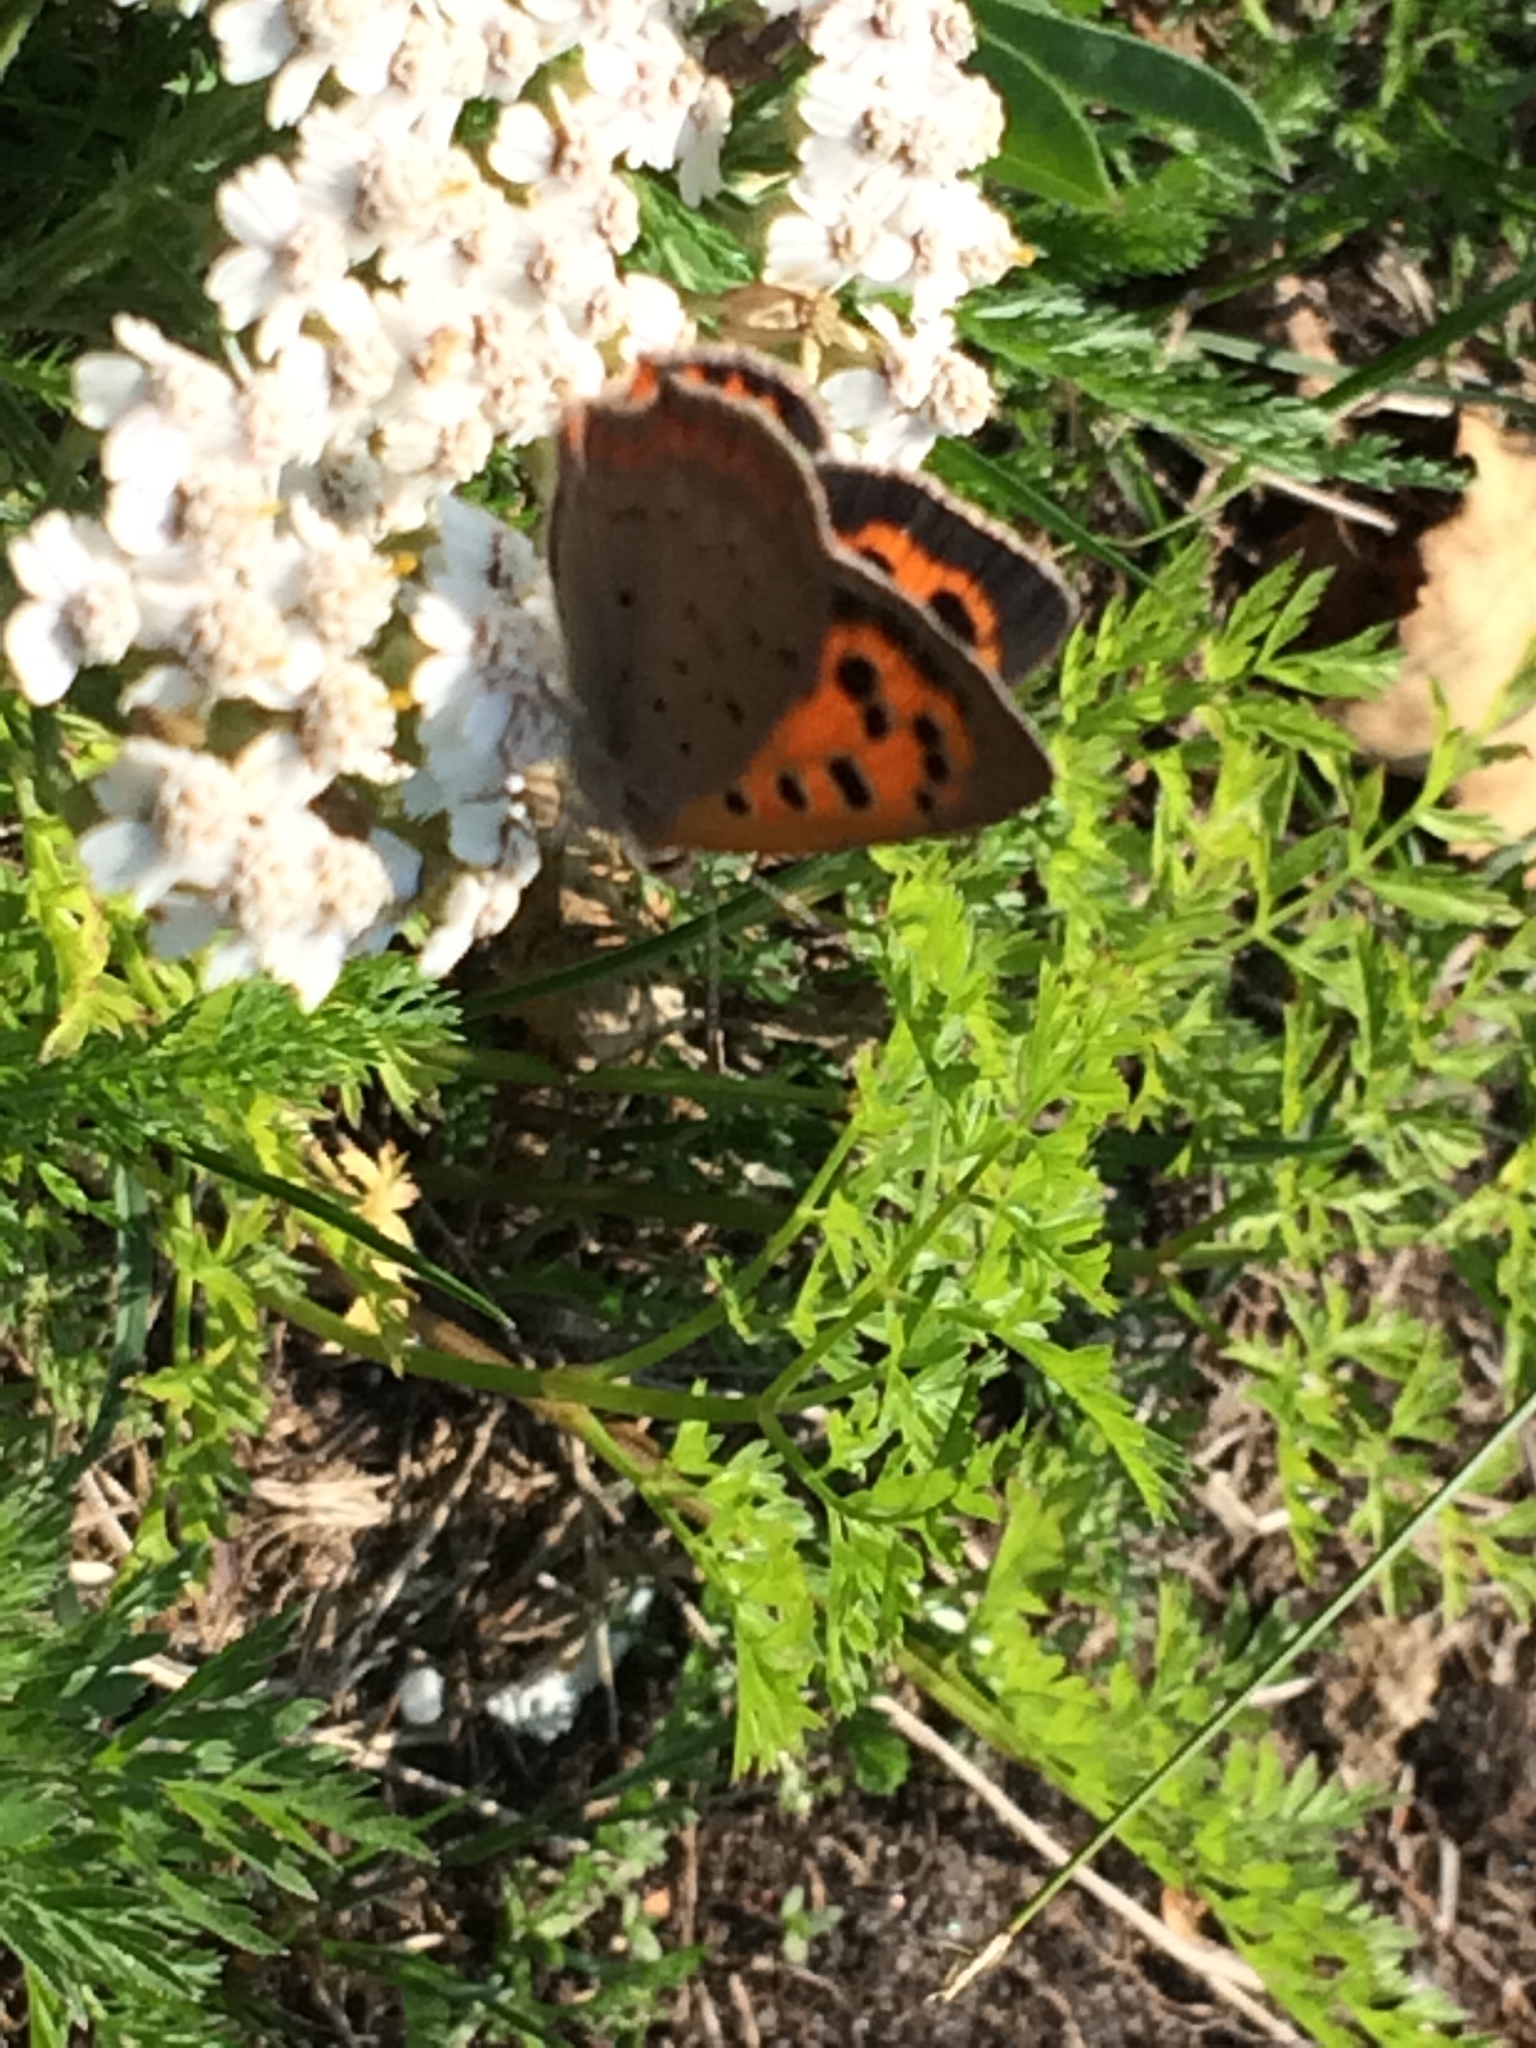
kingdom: Animalia
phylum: Arthropoda
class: Insecta
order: Lepidoptera
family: Lycaenidae
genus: Lycaena
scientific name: Lycaena phlaeas
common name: Small copper
